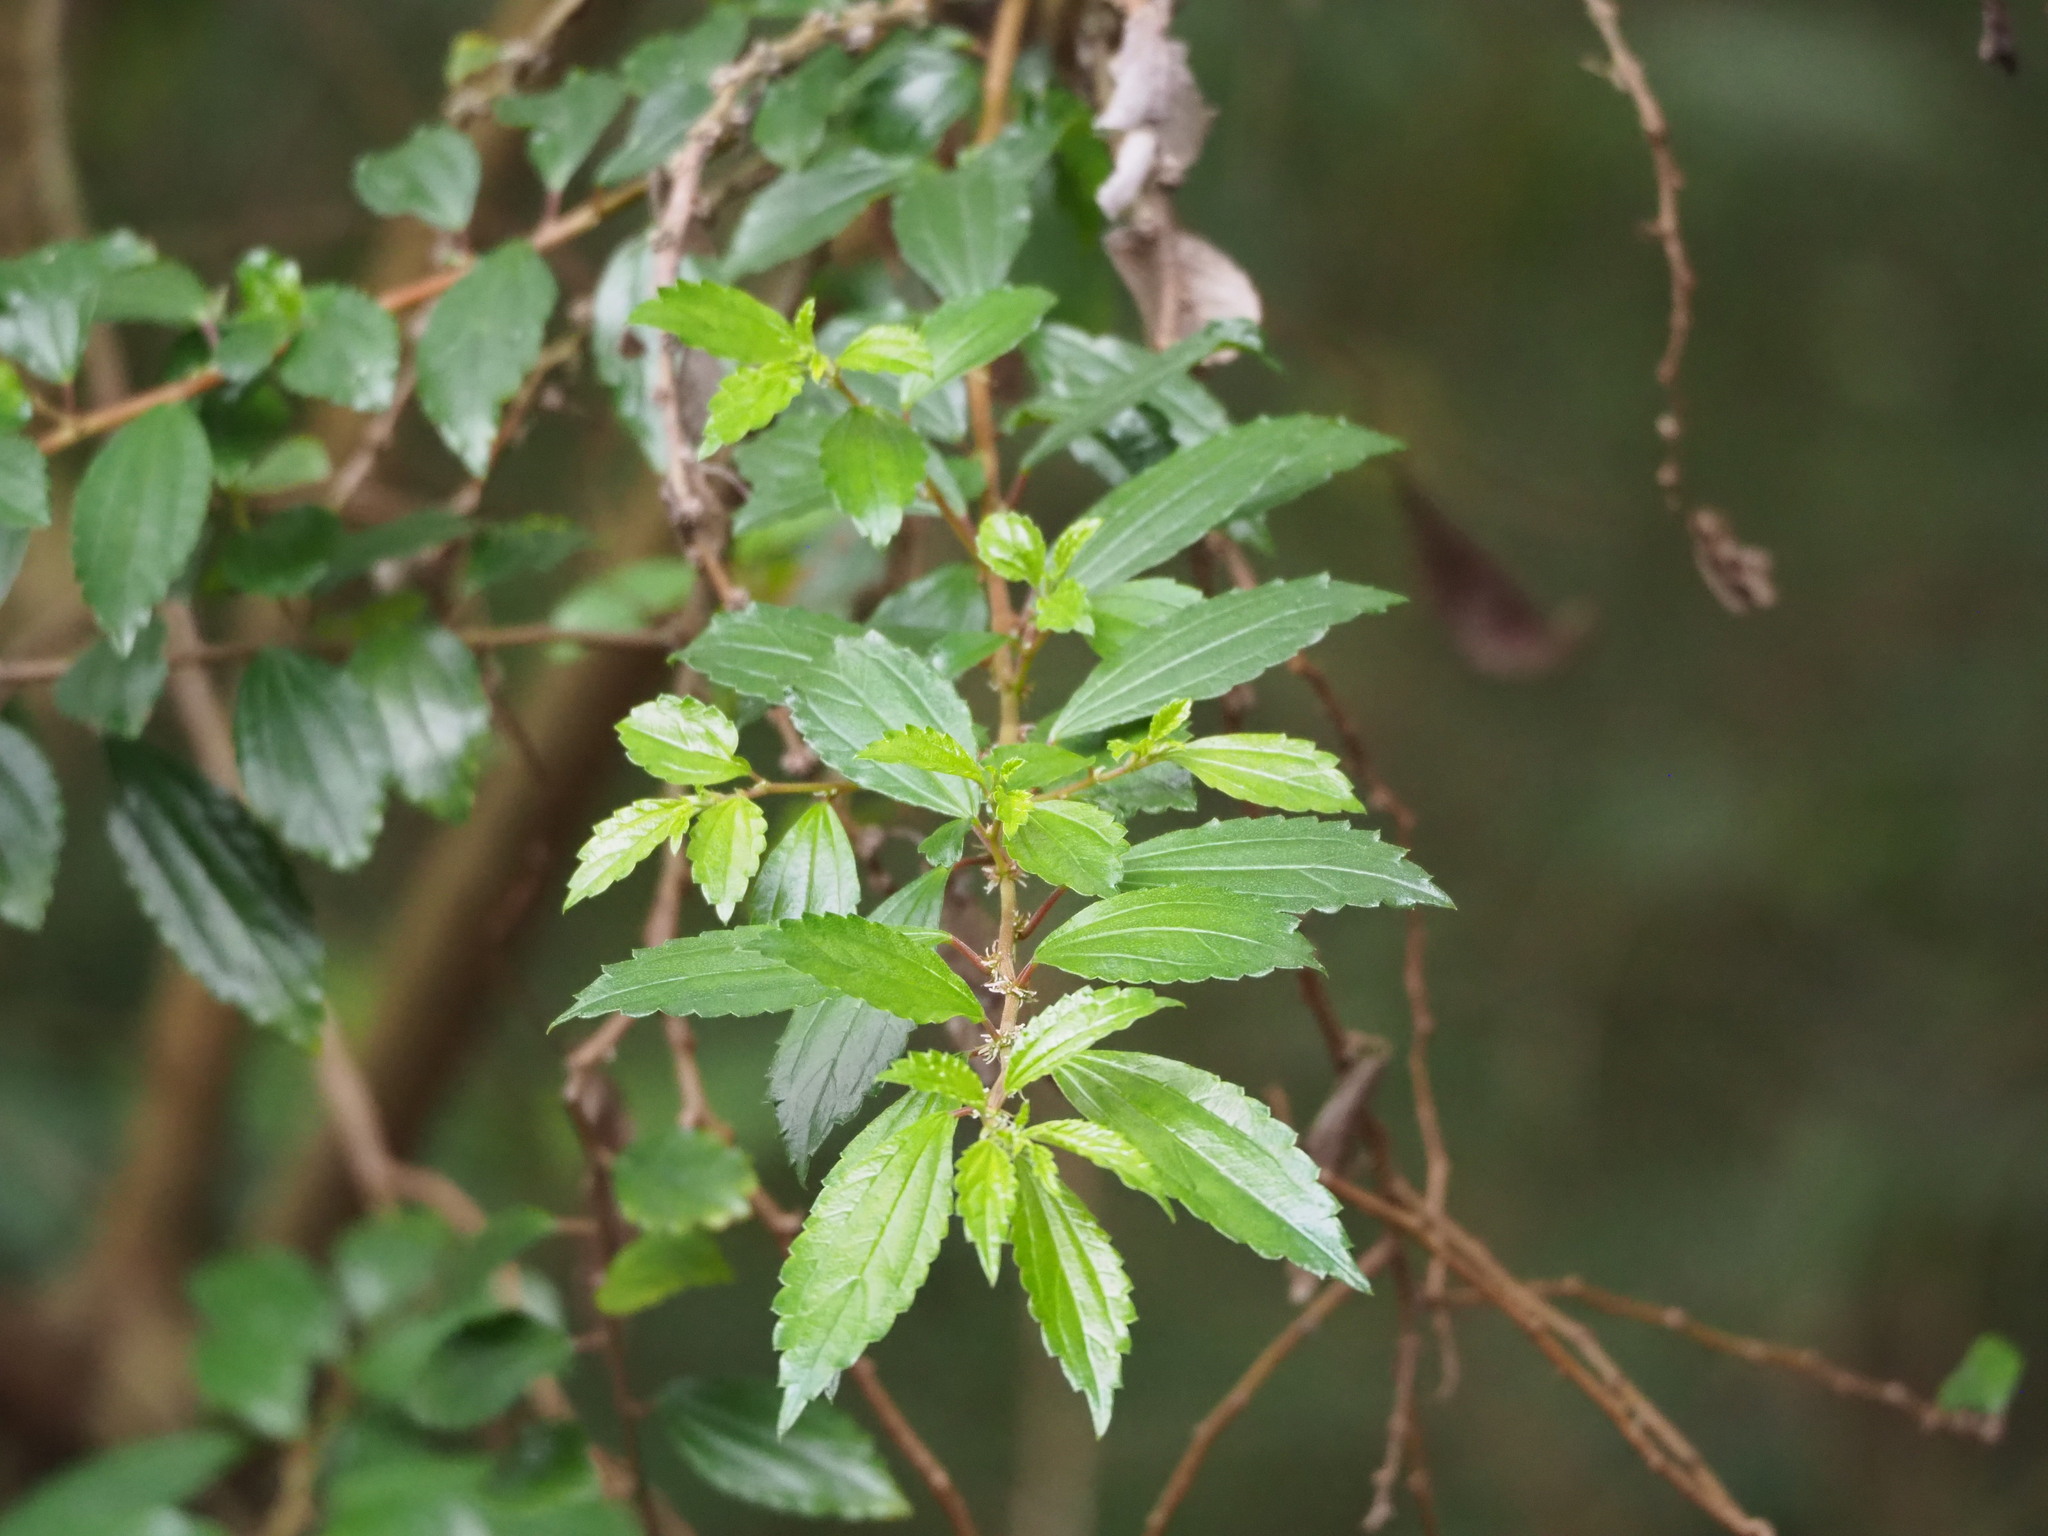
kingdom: Plantae
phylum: Tracheophyta
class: Magnoliopsida
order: Rosales
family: Urticaceae
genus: Pouzolzia
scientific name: Pouzolzia sanguinea
